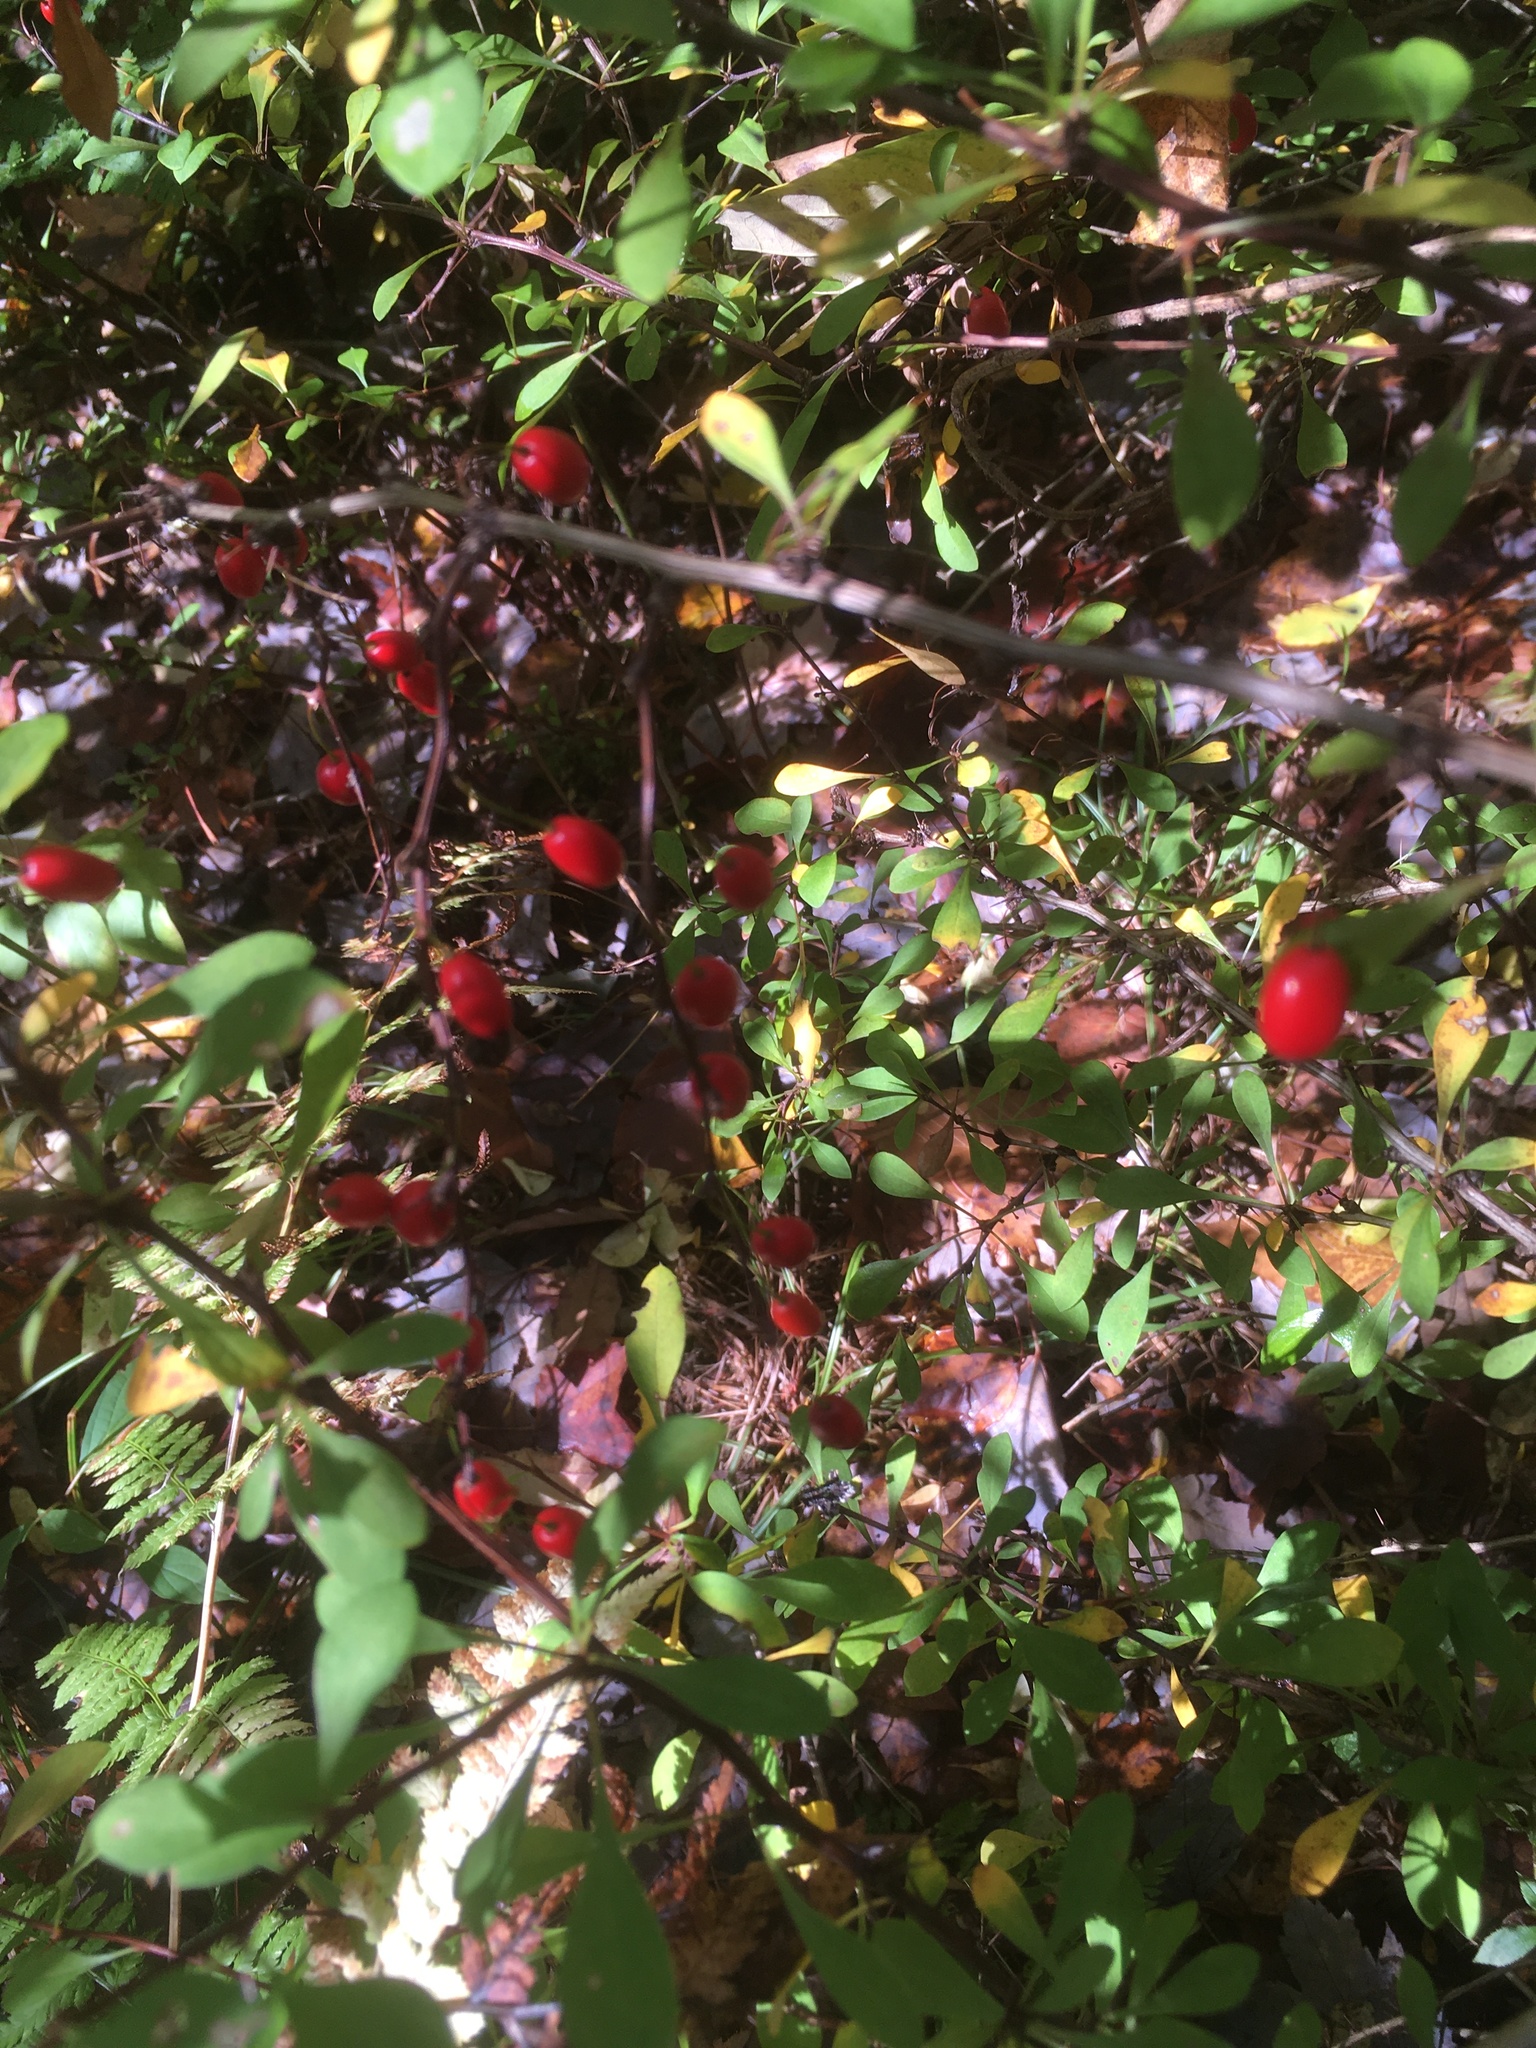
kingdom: Plantae
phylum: Tracheophyta
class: Magnoliopsida
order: Ranunculales
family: Berberidaceae
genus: Berberis
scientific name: Berberis thunbergii
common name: Japanese barberry
